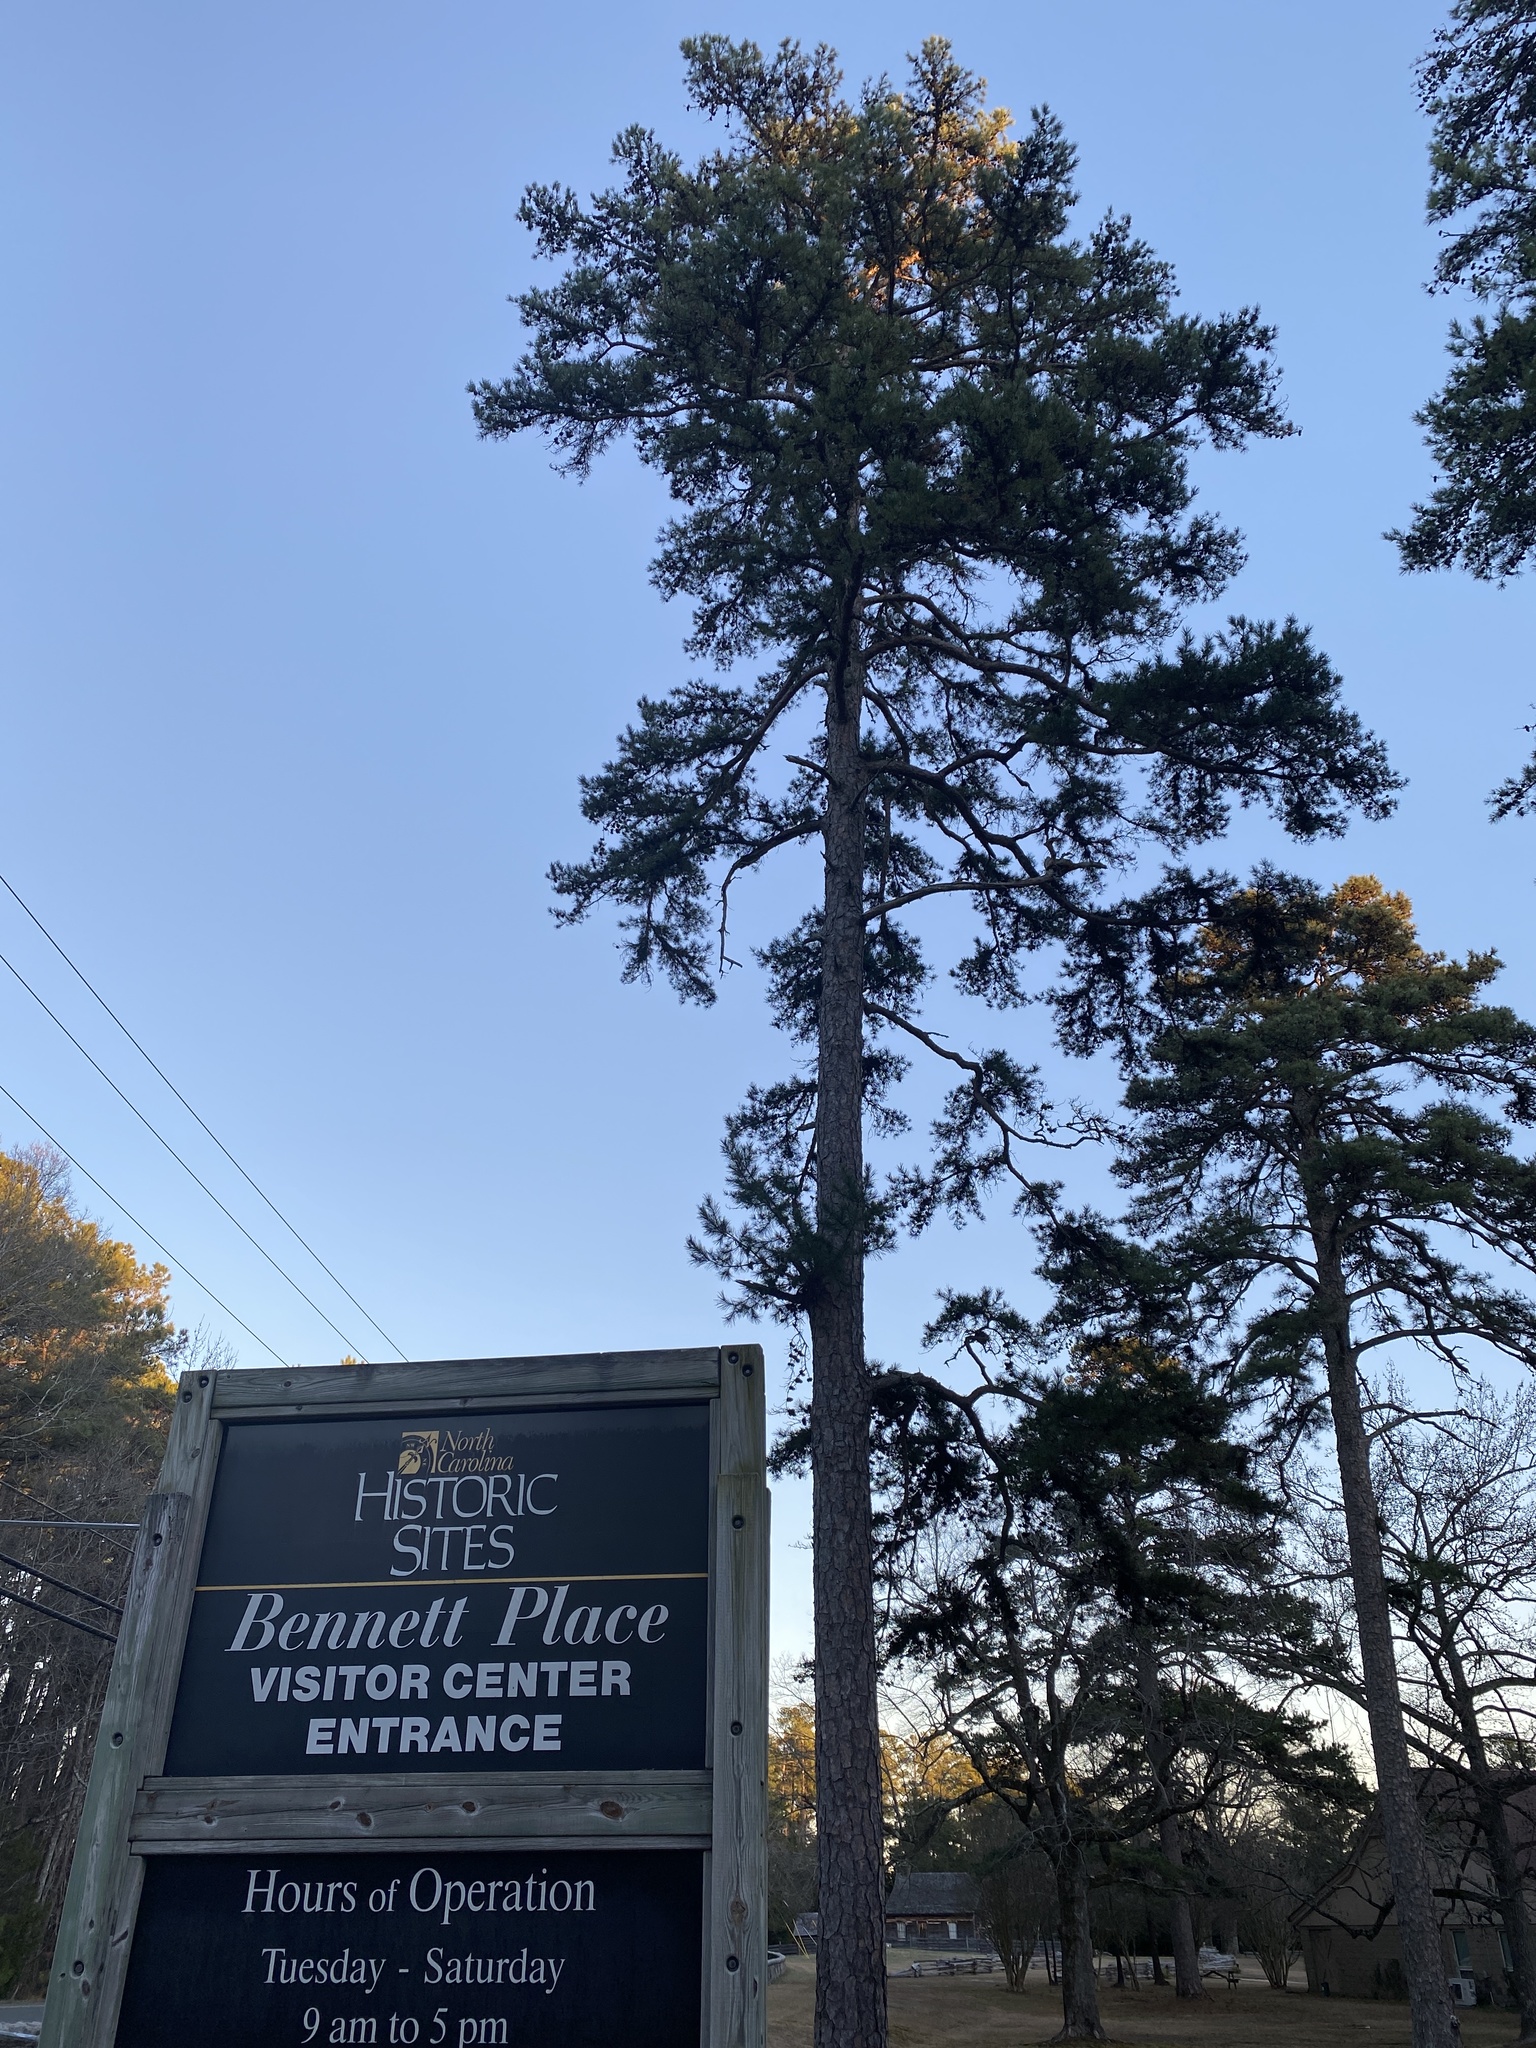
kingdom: Plantae
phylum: Tracheophyta
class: Pinopsida
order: Pinales
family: Pinaceae
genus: Pinus
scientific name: Pinus echinata
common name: Shortleaf pine
